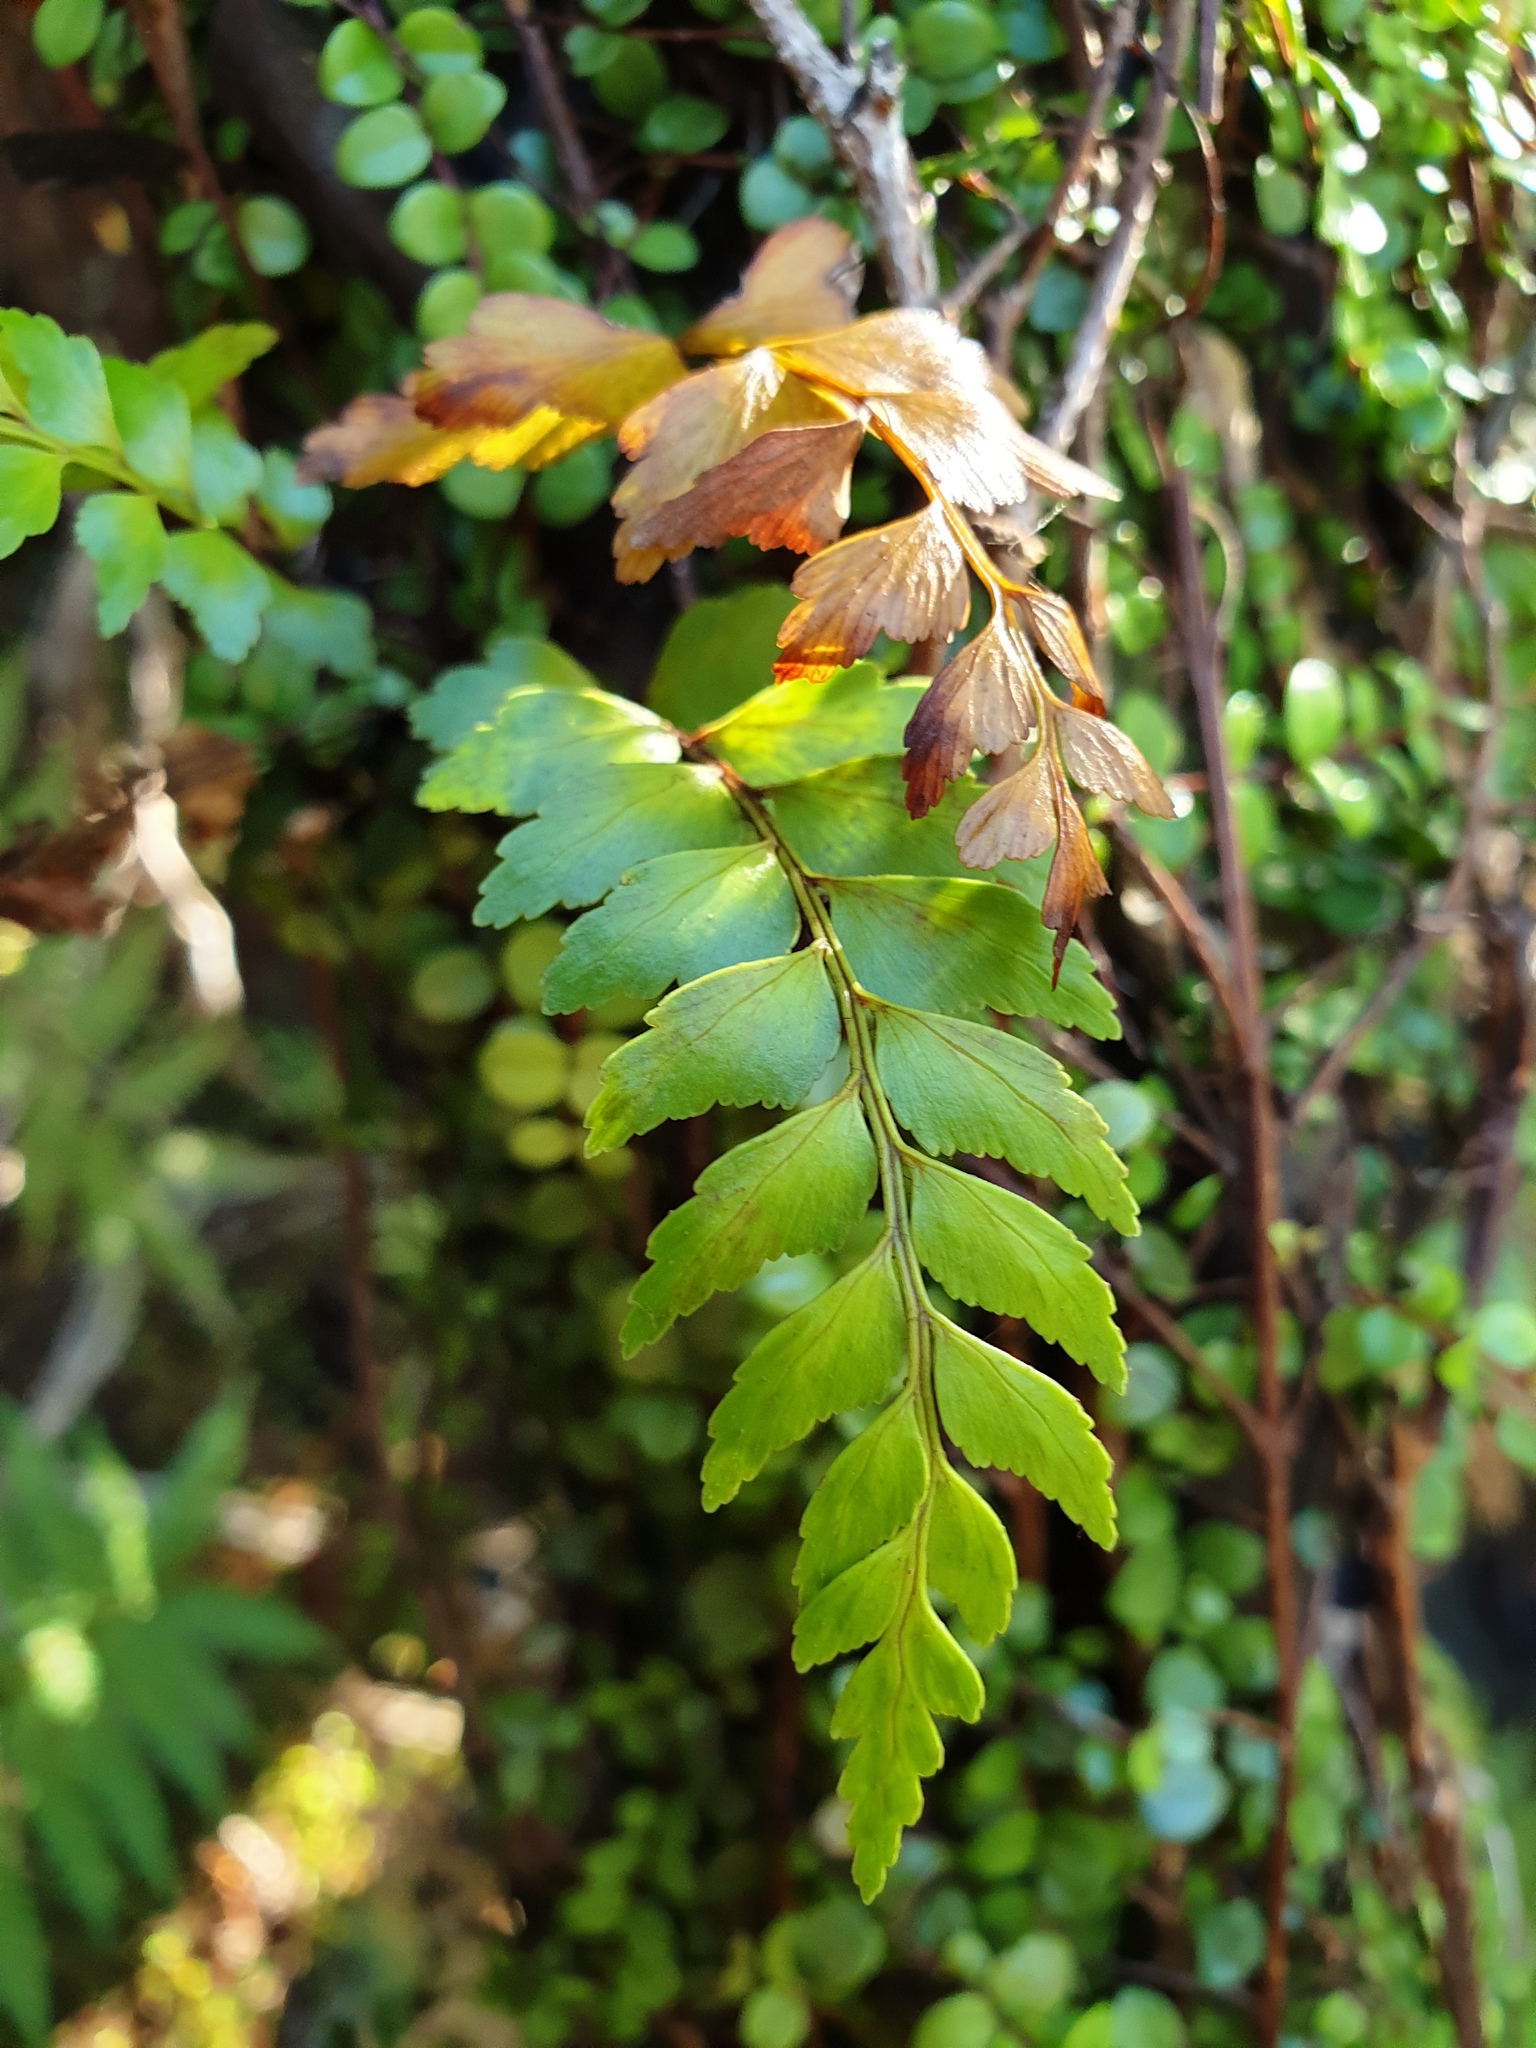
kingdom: Plantae
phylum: Tracheophyta
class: Polypodiopsida
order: Polypodiales
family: Aspleniaceae
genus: Asplenium
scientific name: Asplenium polyodon
